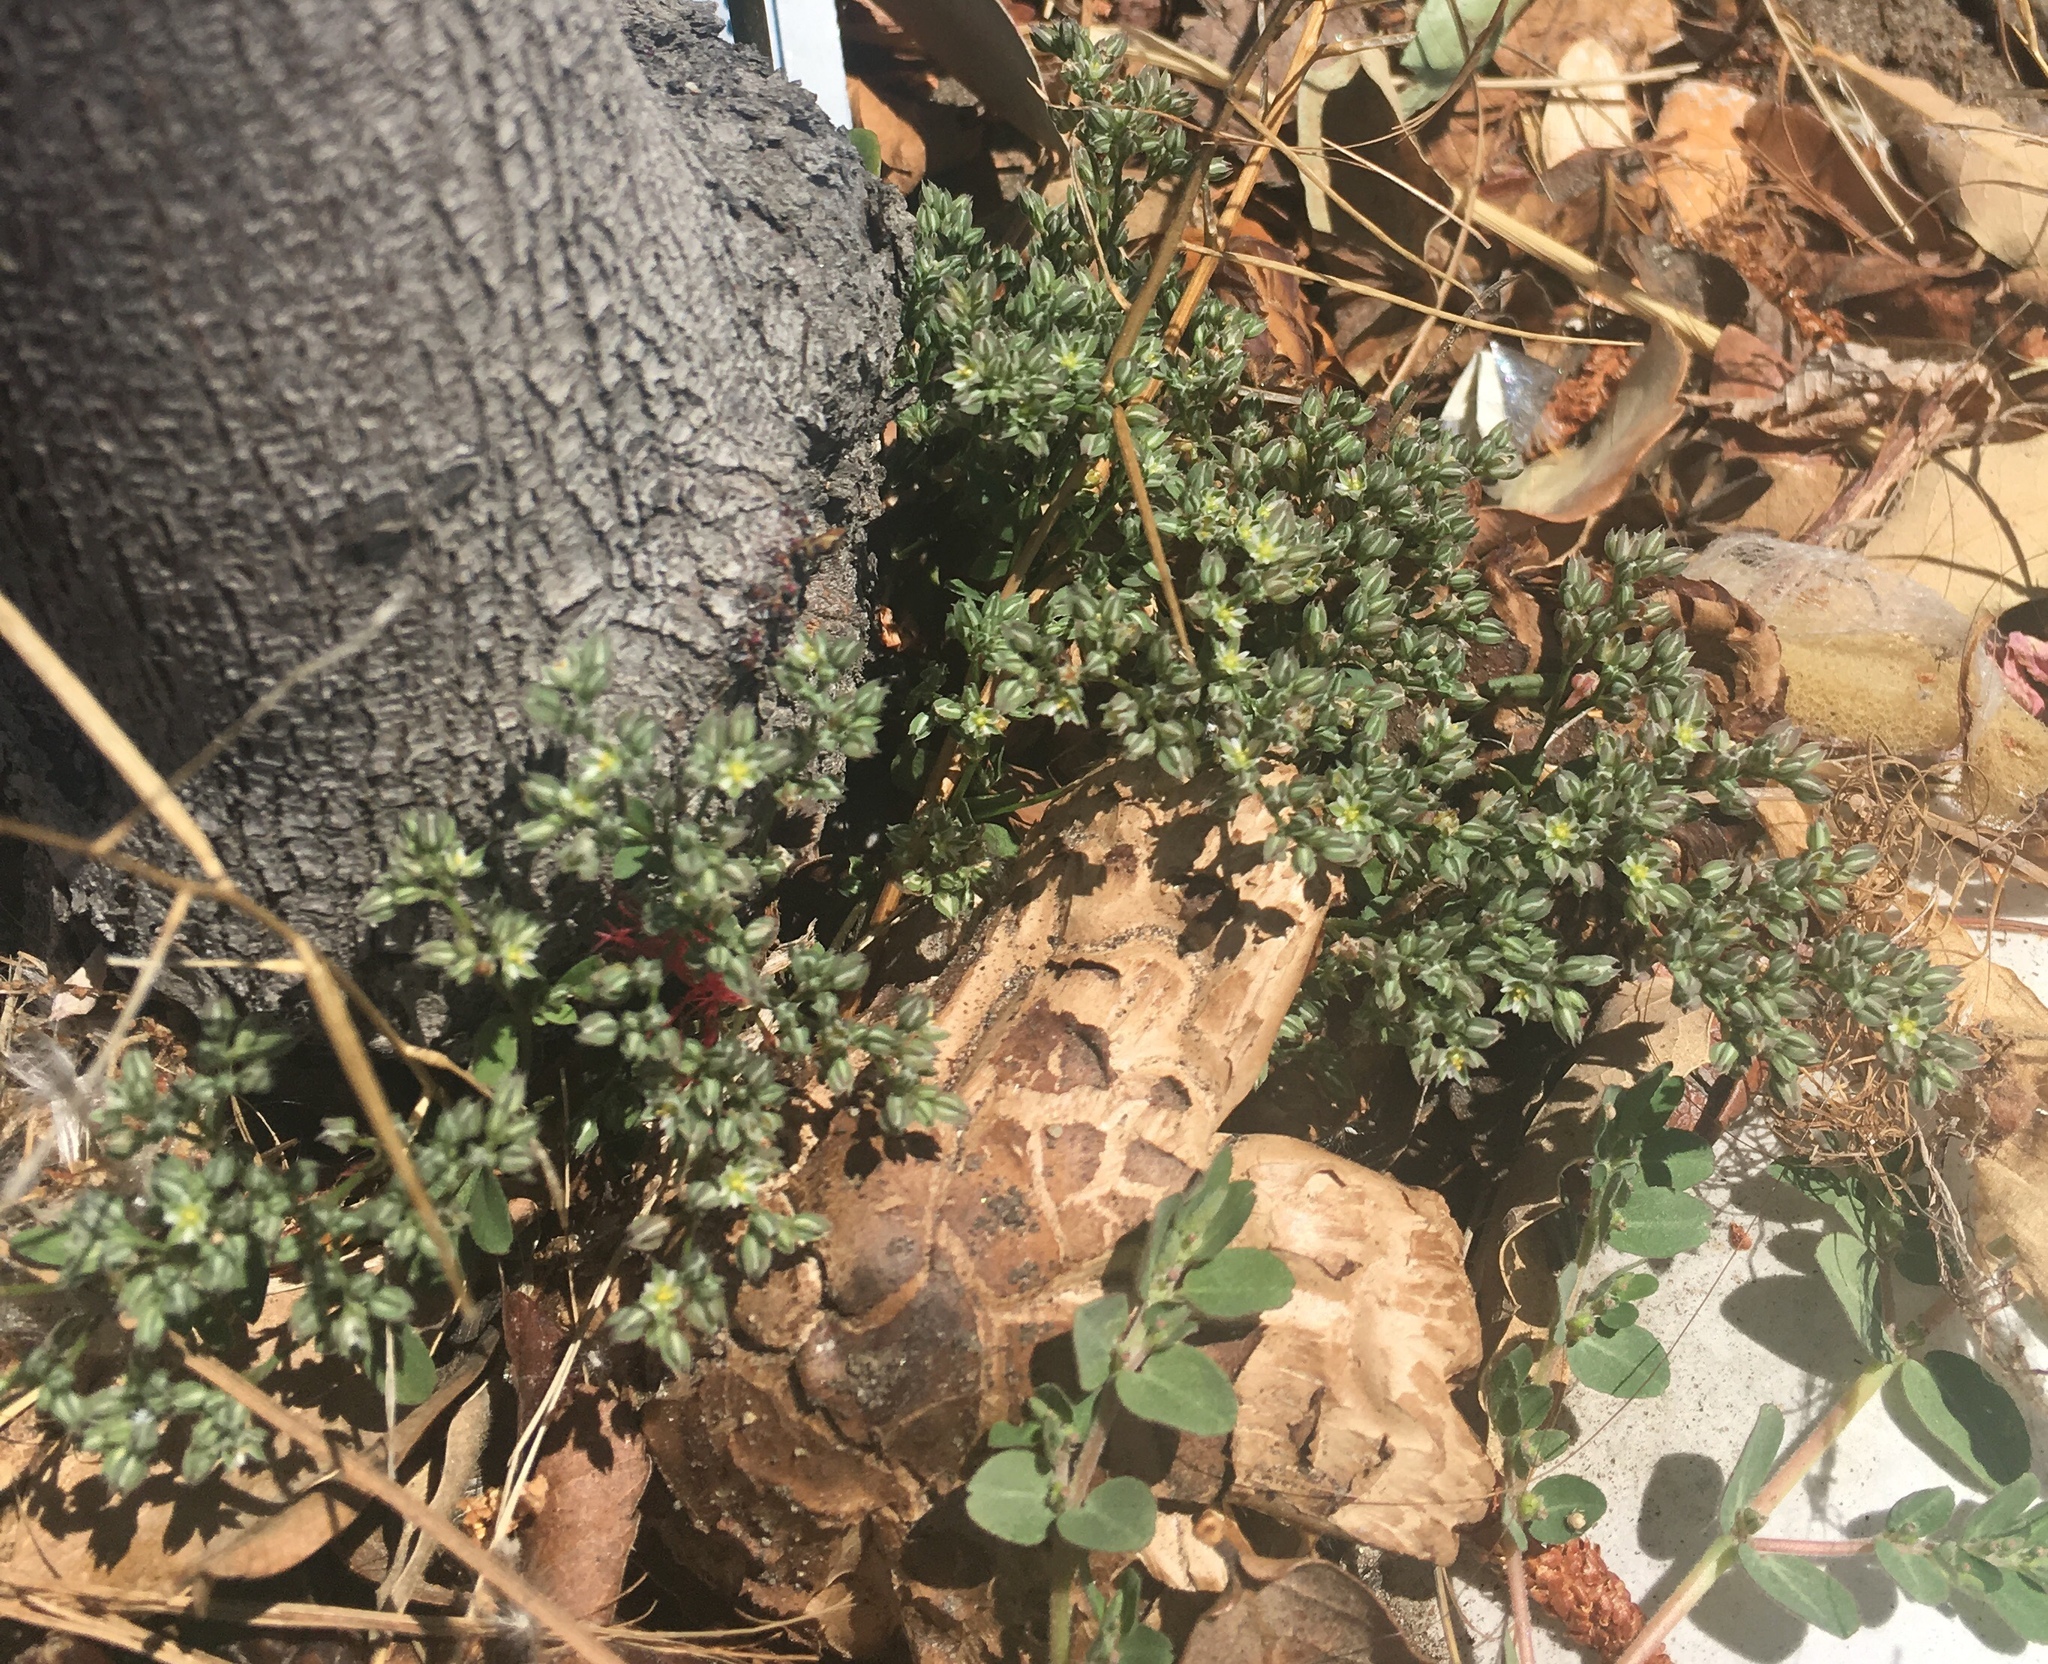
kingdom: Plantae
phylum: Tracheophyta
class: Magnoliopsida
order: Caryophyllales
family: Caryophyllaceae
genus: Polycarpon
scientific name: Polycarpon tetraphyllum
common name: Four-leaved all-seed
